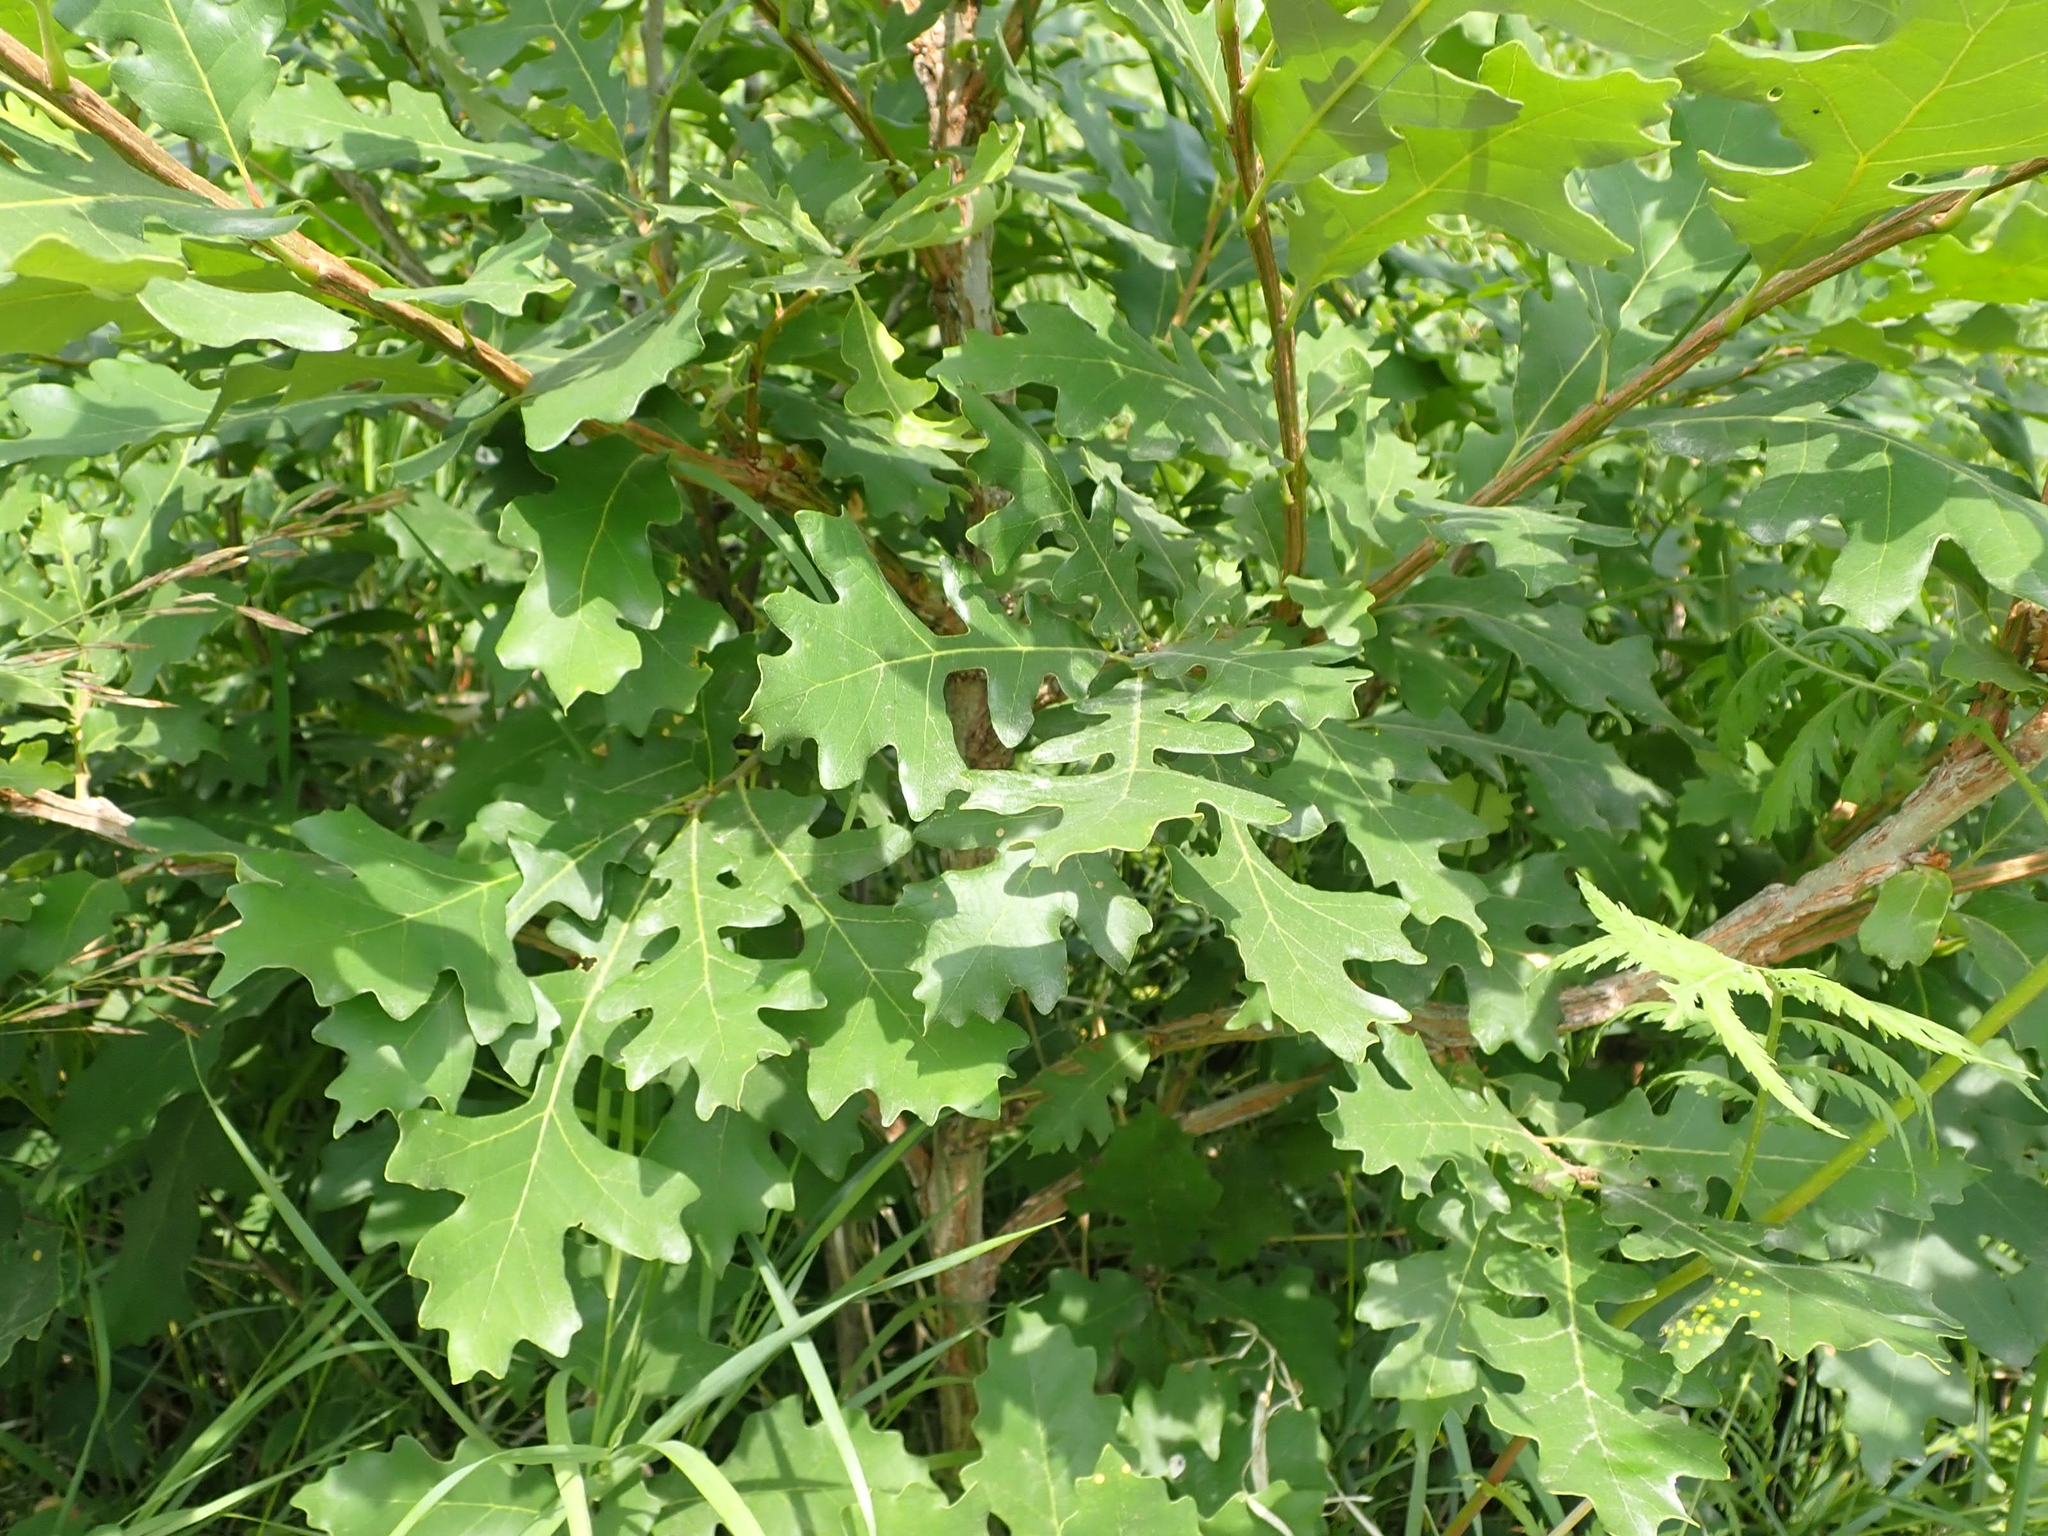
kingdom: Plantae
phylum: Tracheophyta
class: Magnoliopsida
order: Fagales
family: Fagaceae
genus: Quercus
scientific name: Quercus macrocarpa
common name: Bur oak
